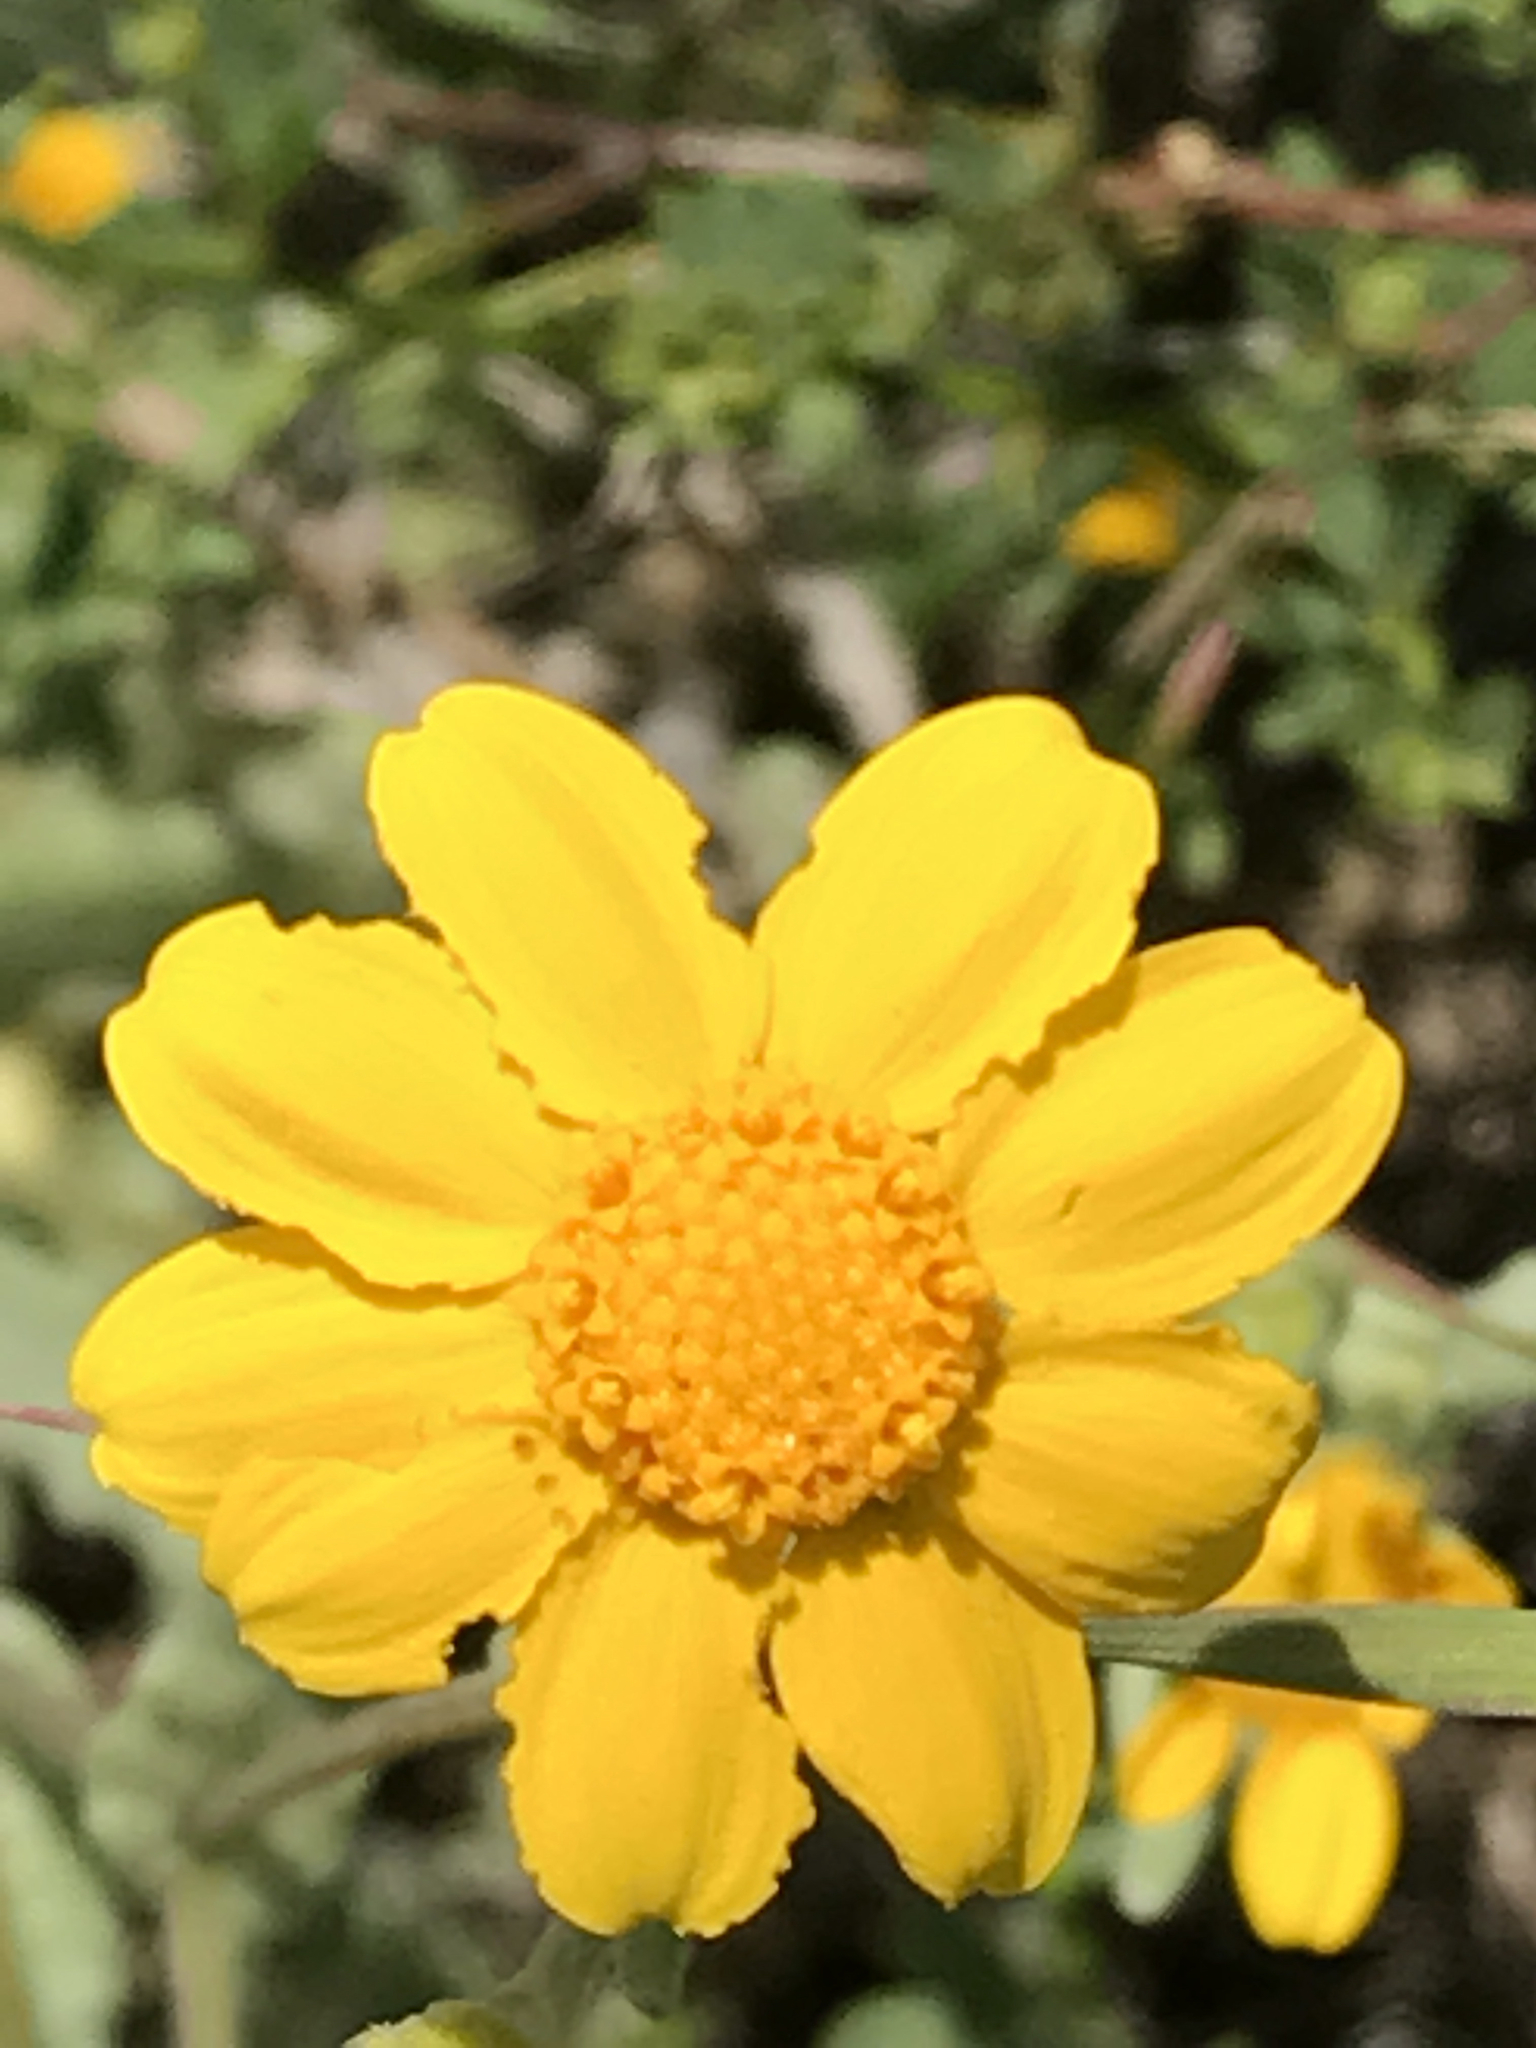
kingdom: Plantae
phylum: Tracheophyta
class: Magnoliopsida
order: Asterales
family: Asteraceae
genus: Monolopia
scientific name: Monolopia gracilens
